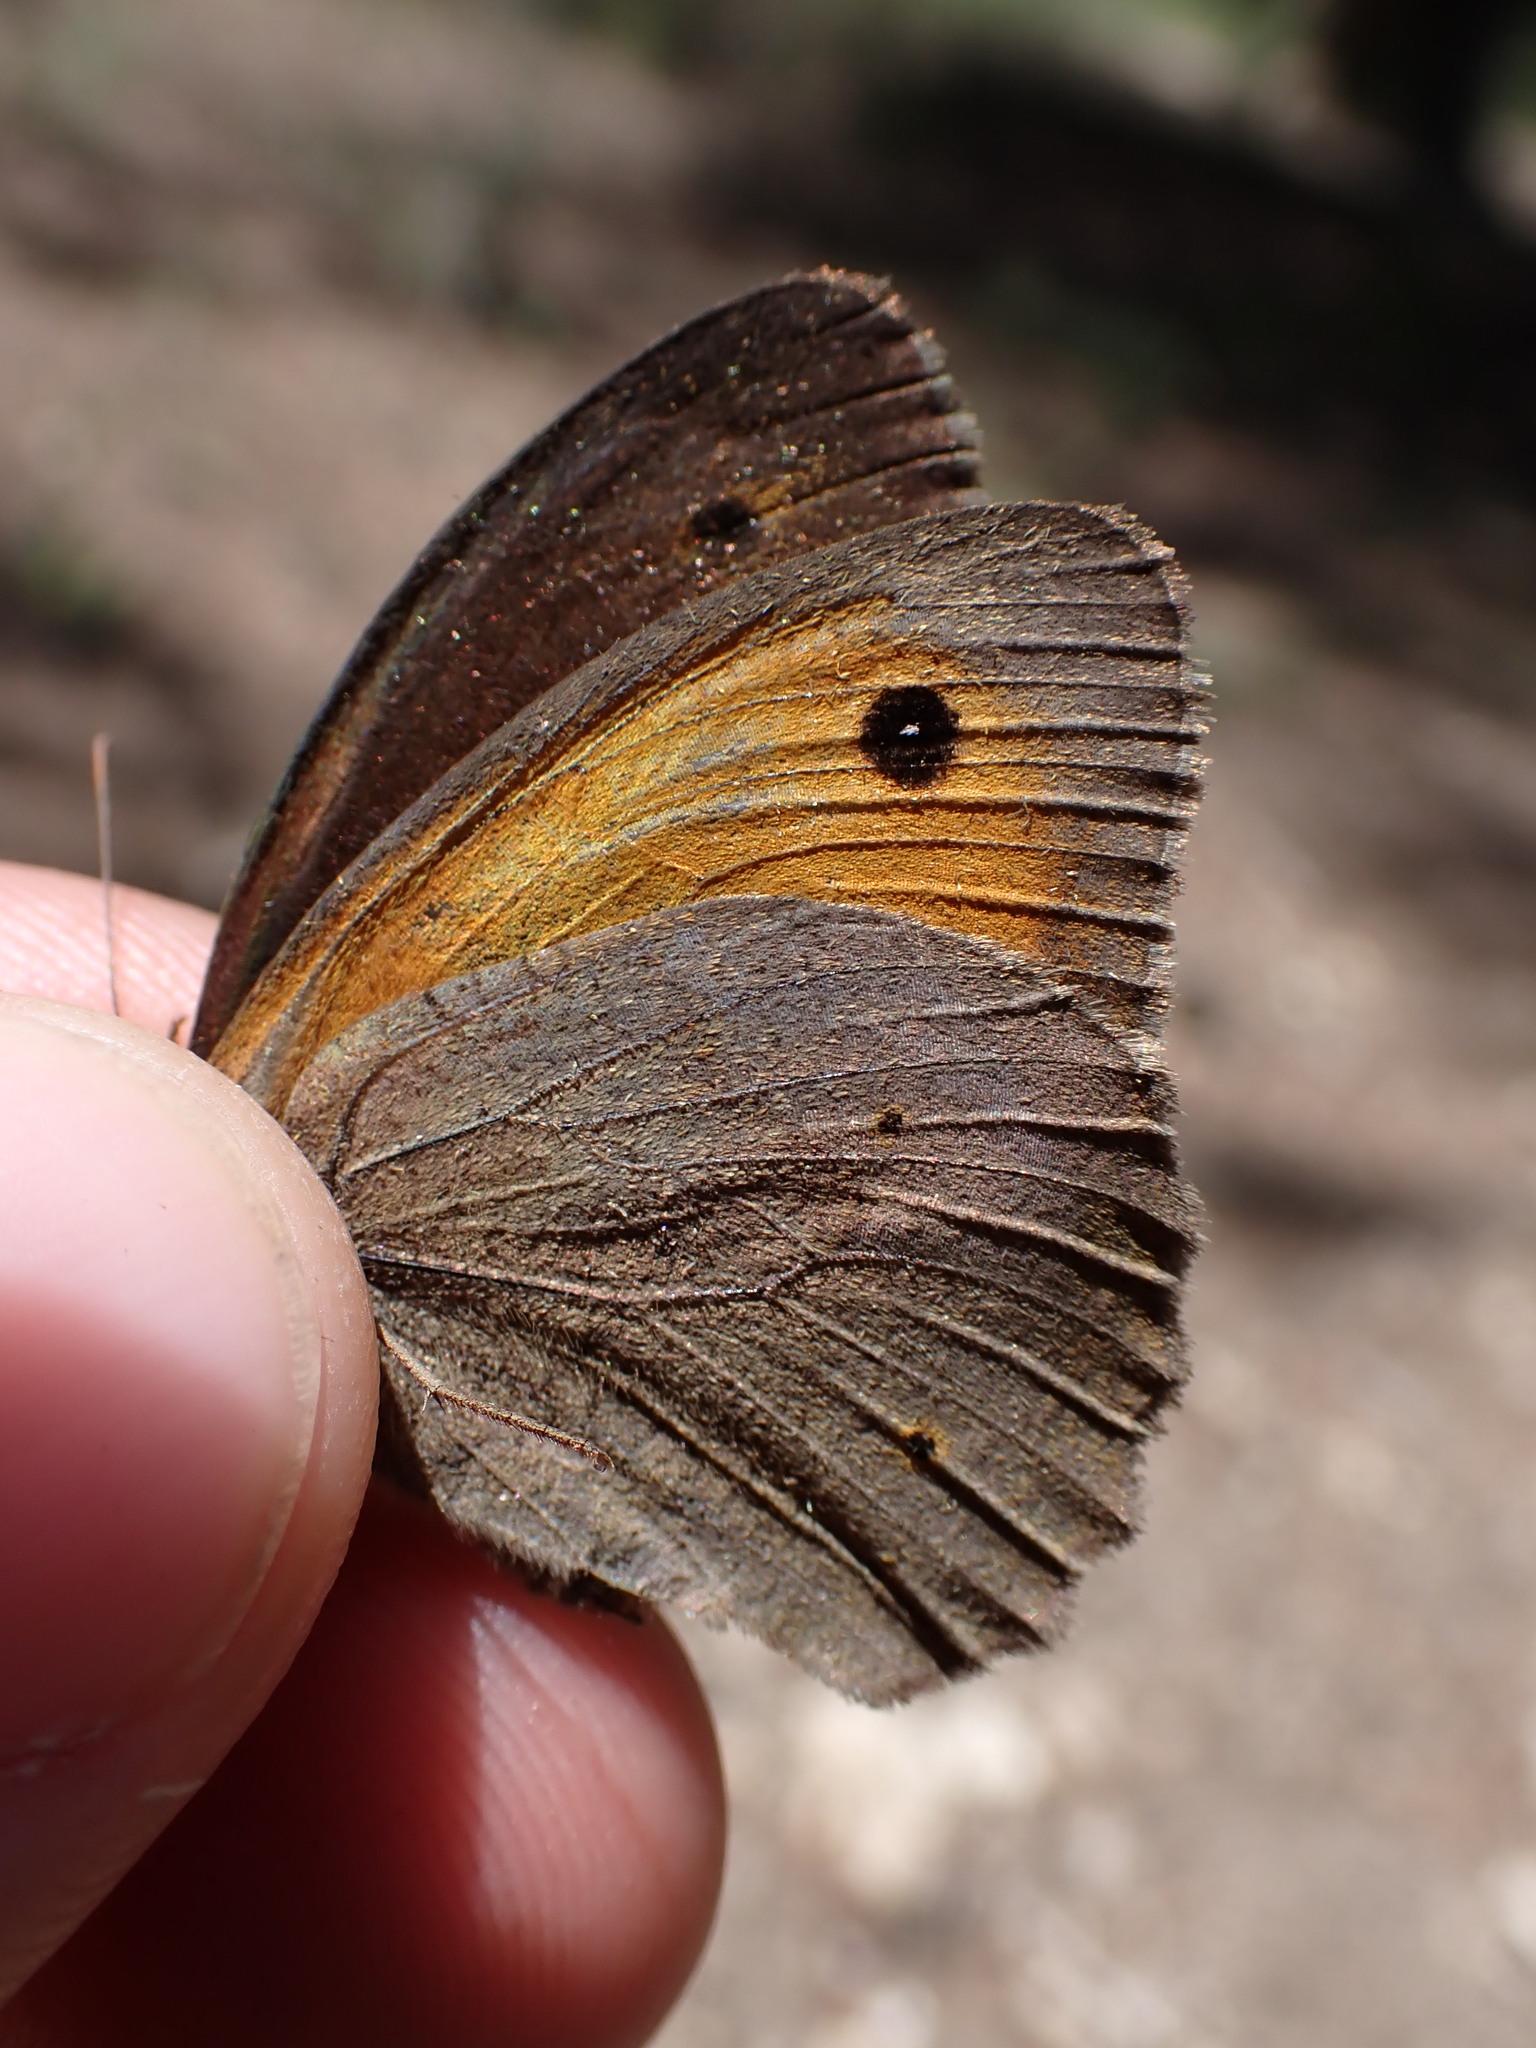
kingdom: Animalia
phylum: Arthropoda
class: Insecta
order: Lepidoptera
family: Nymphalidae
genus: Maniola
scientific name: Maniola jurtina
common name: Meadow brown
